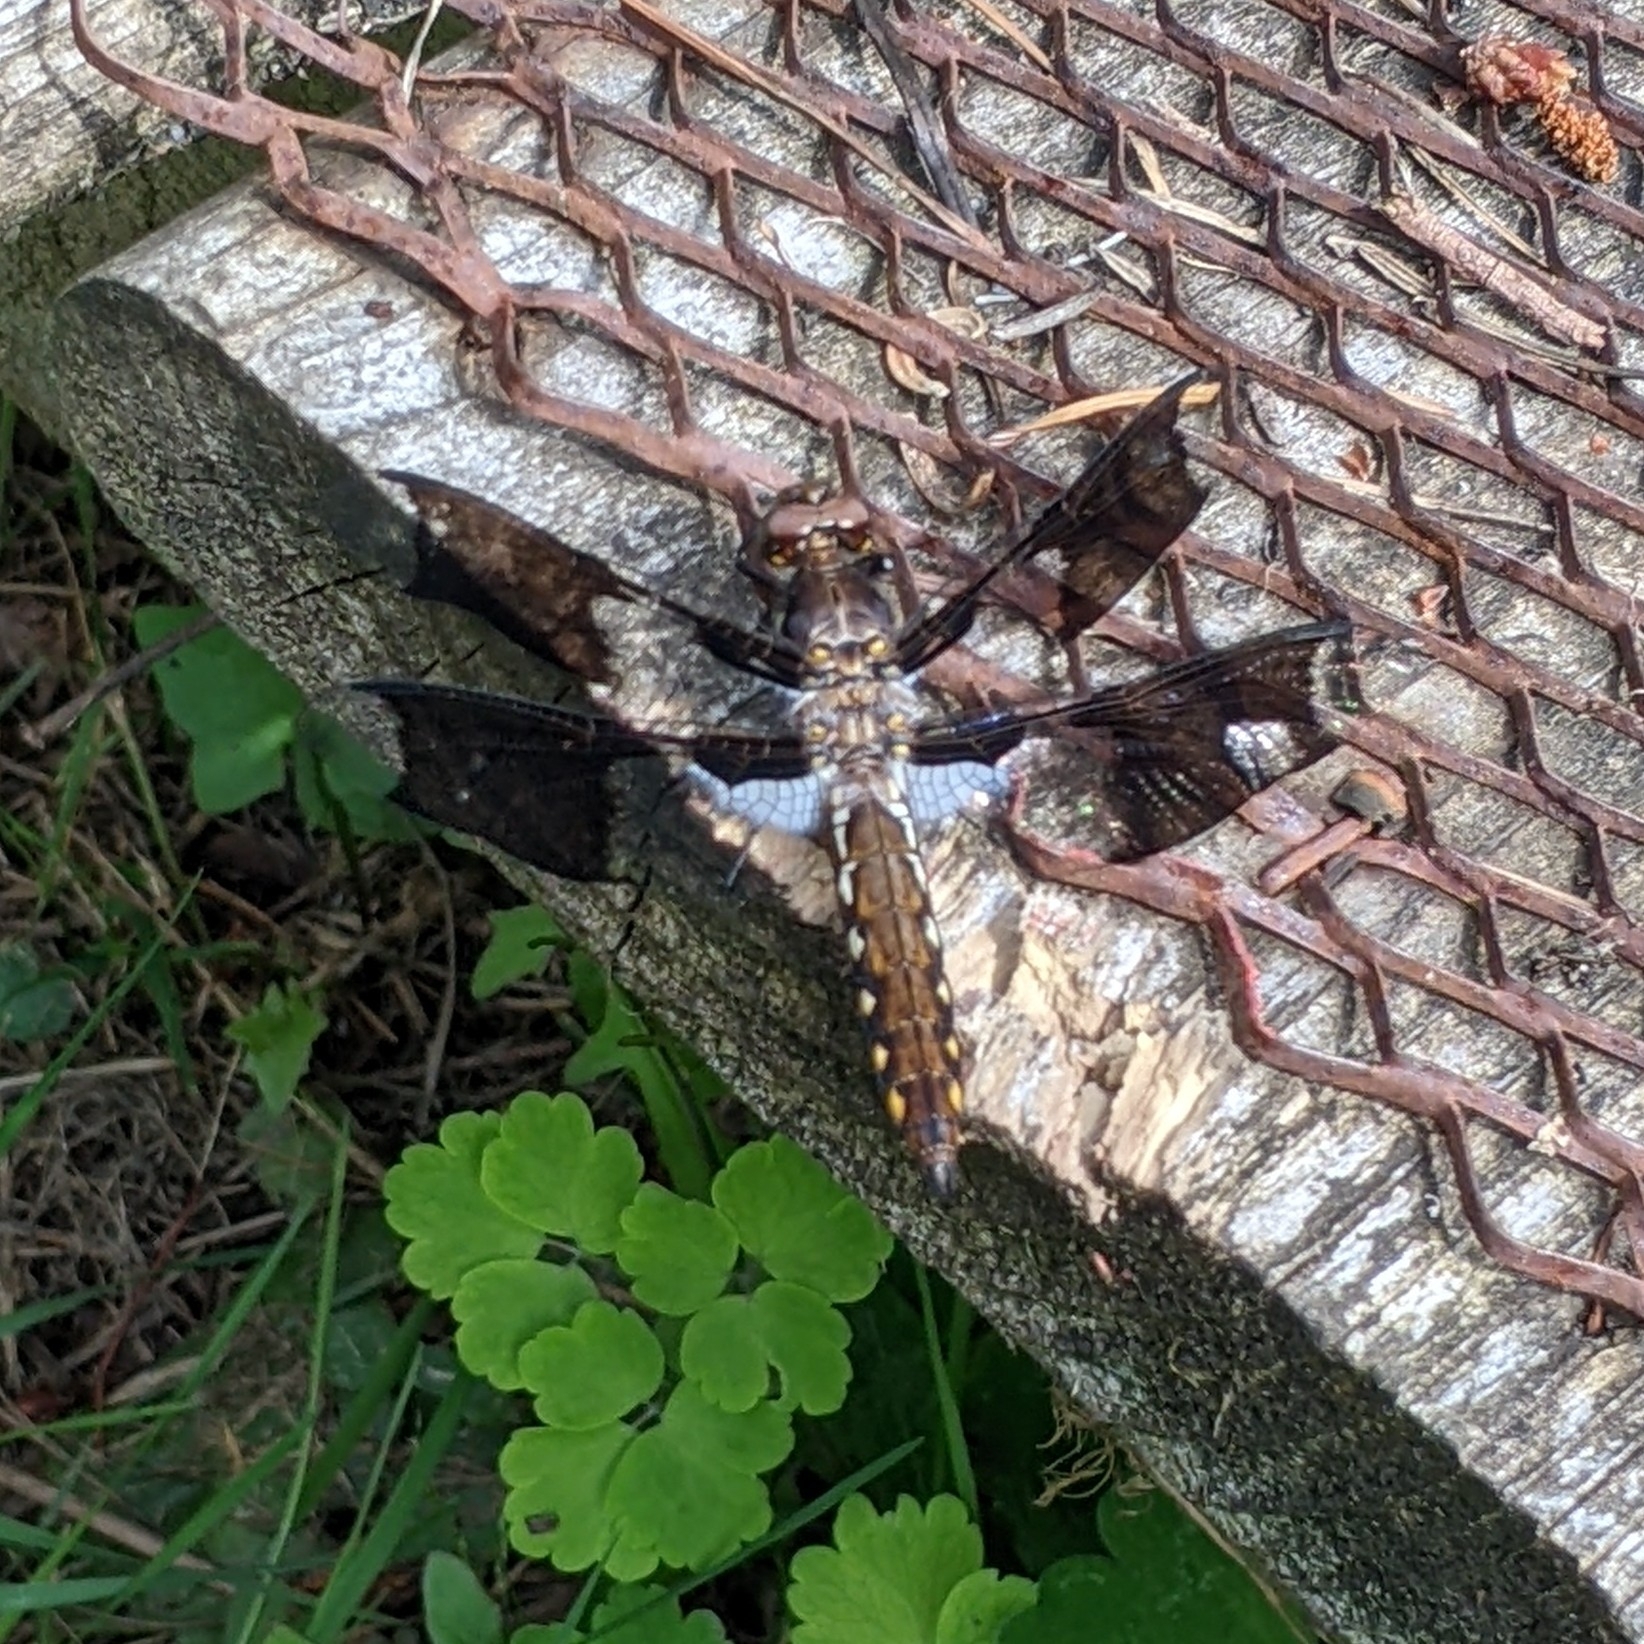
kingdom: Animalia
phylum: Arthropoda
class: Insecta
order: Odonata
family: Libellulidae
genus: Plathemis
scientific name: Plathemis lydia
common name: Common whitetail
